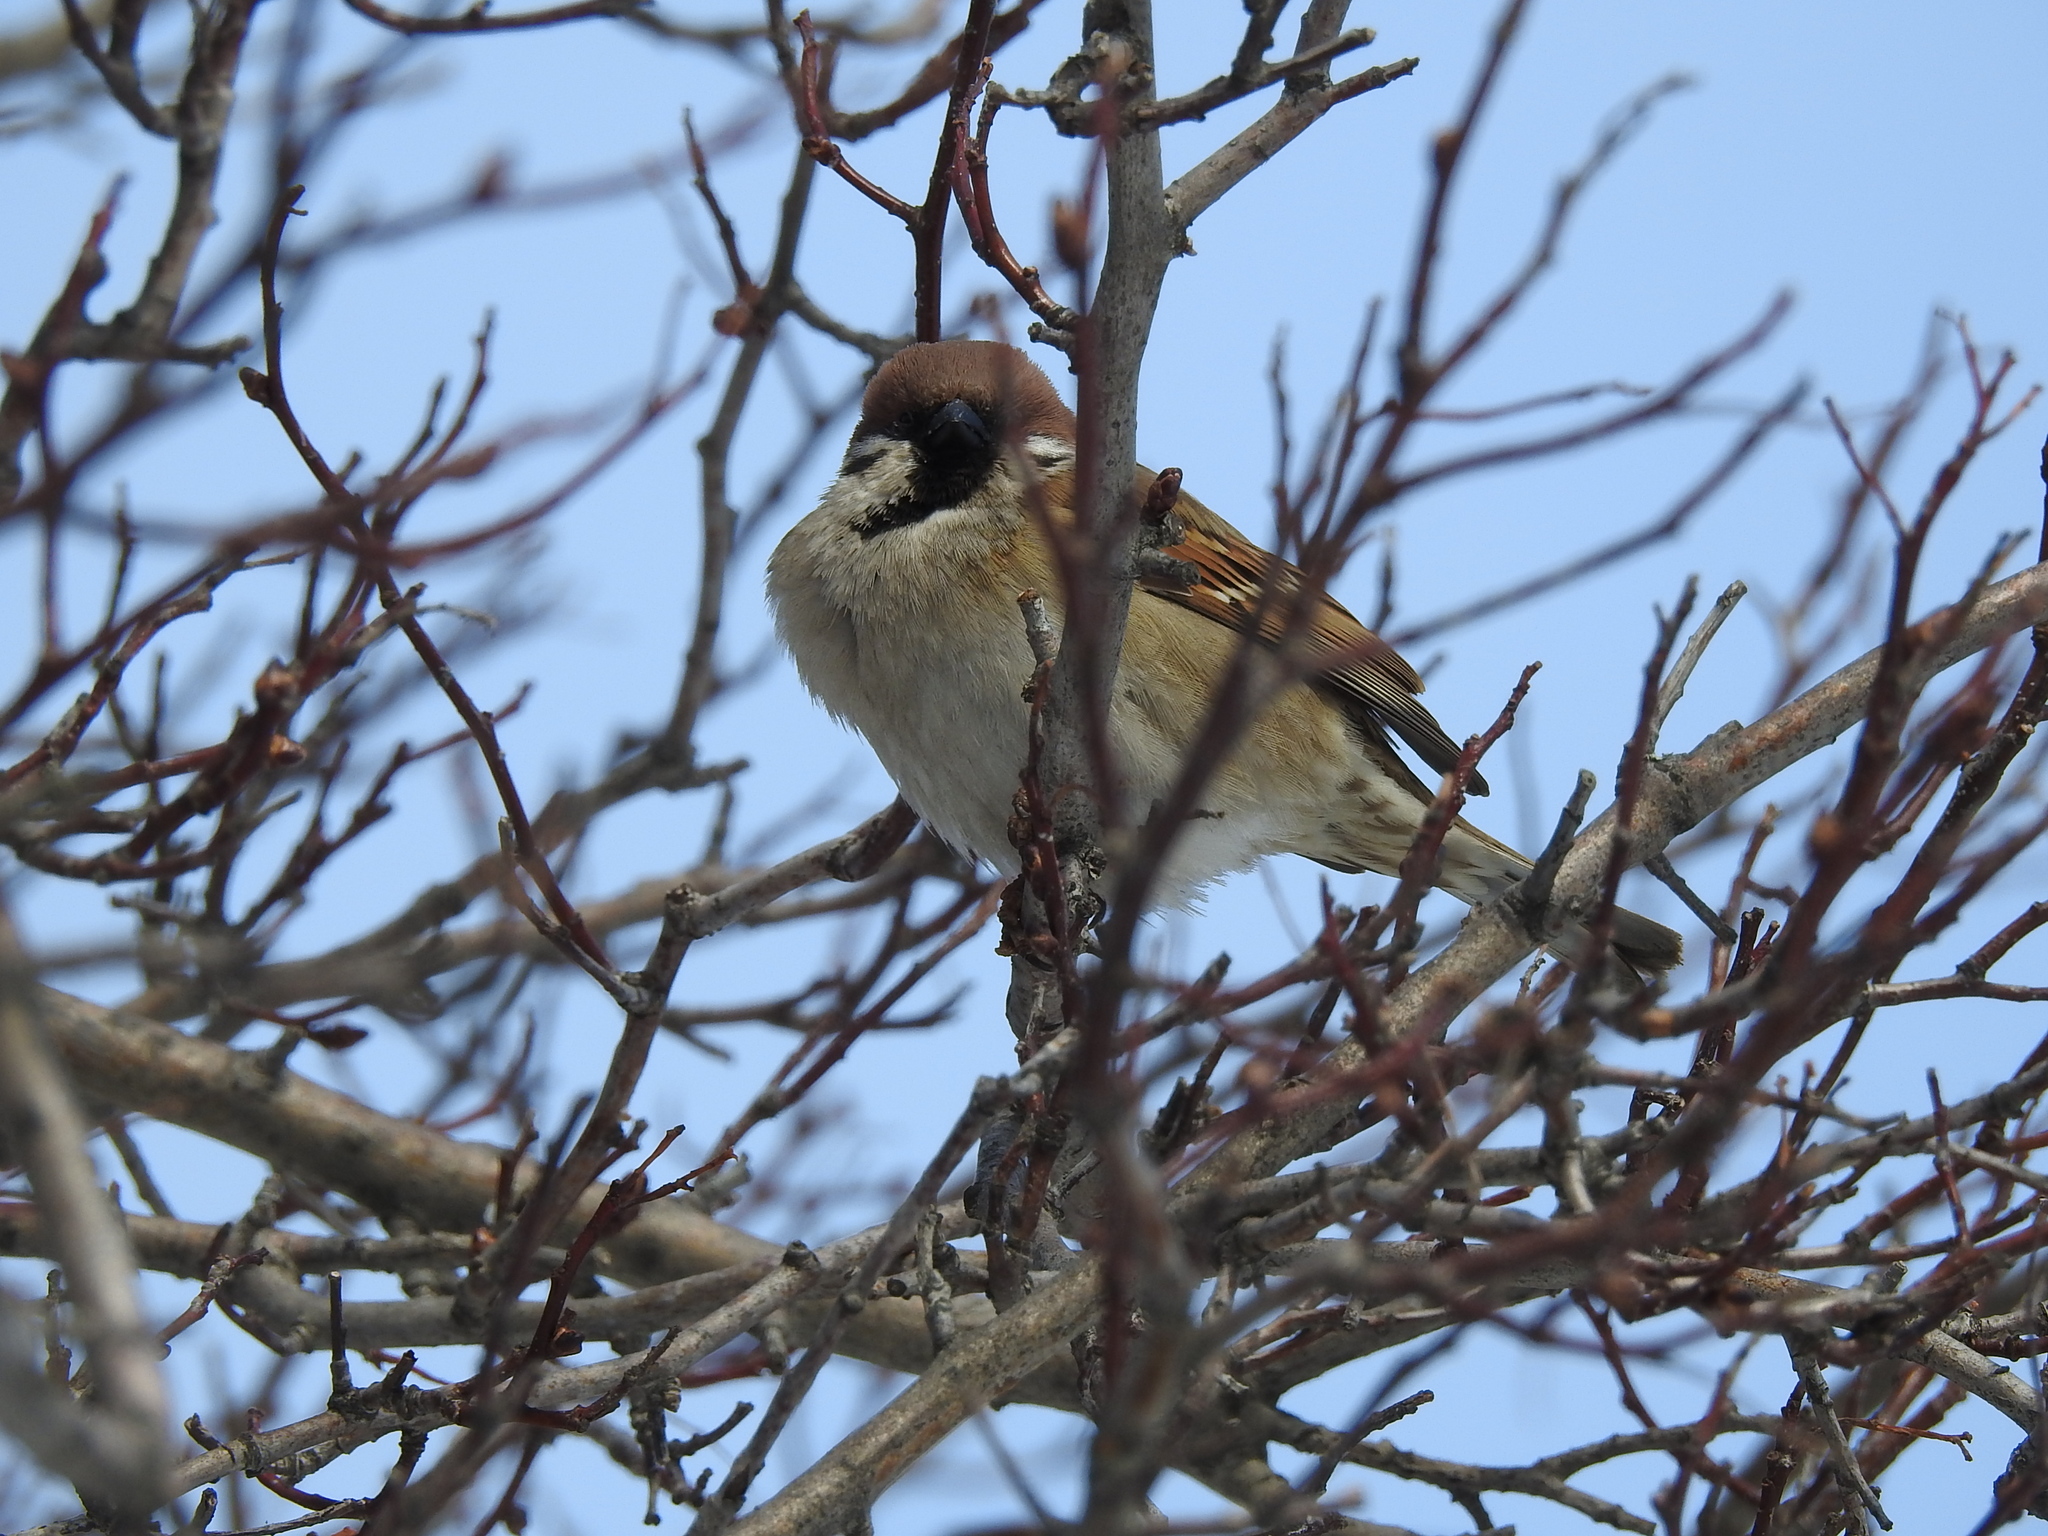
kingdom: Animalia
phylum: Chordata
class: Aves
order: Passeriformes
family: Passeridae
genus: Passer
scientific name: Passer montanus
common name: Eurasian tree sparrow
